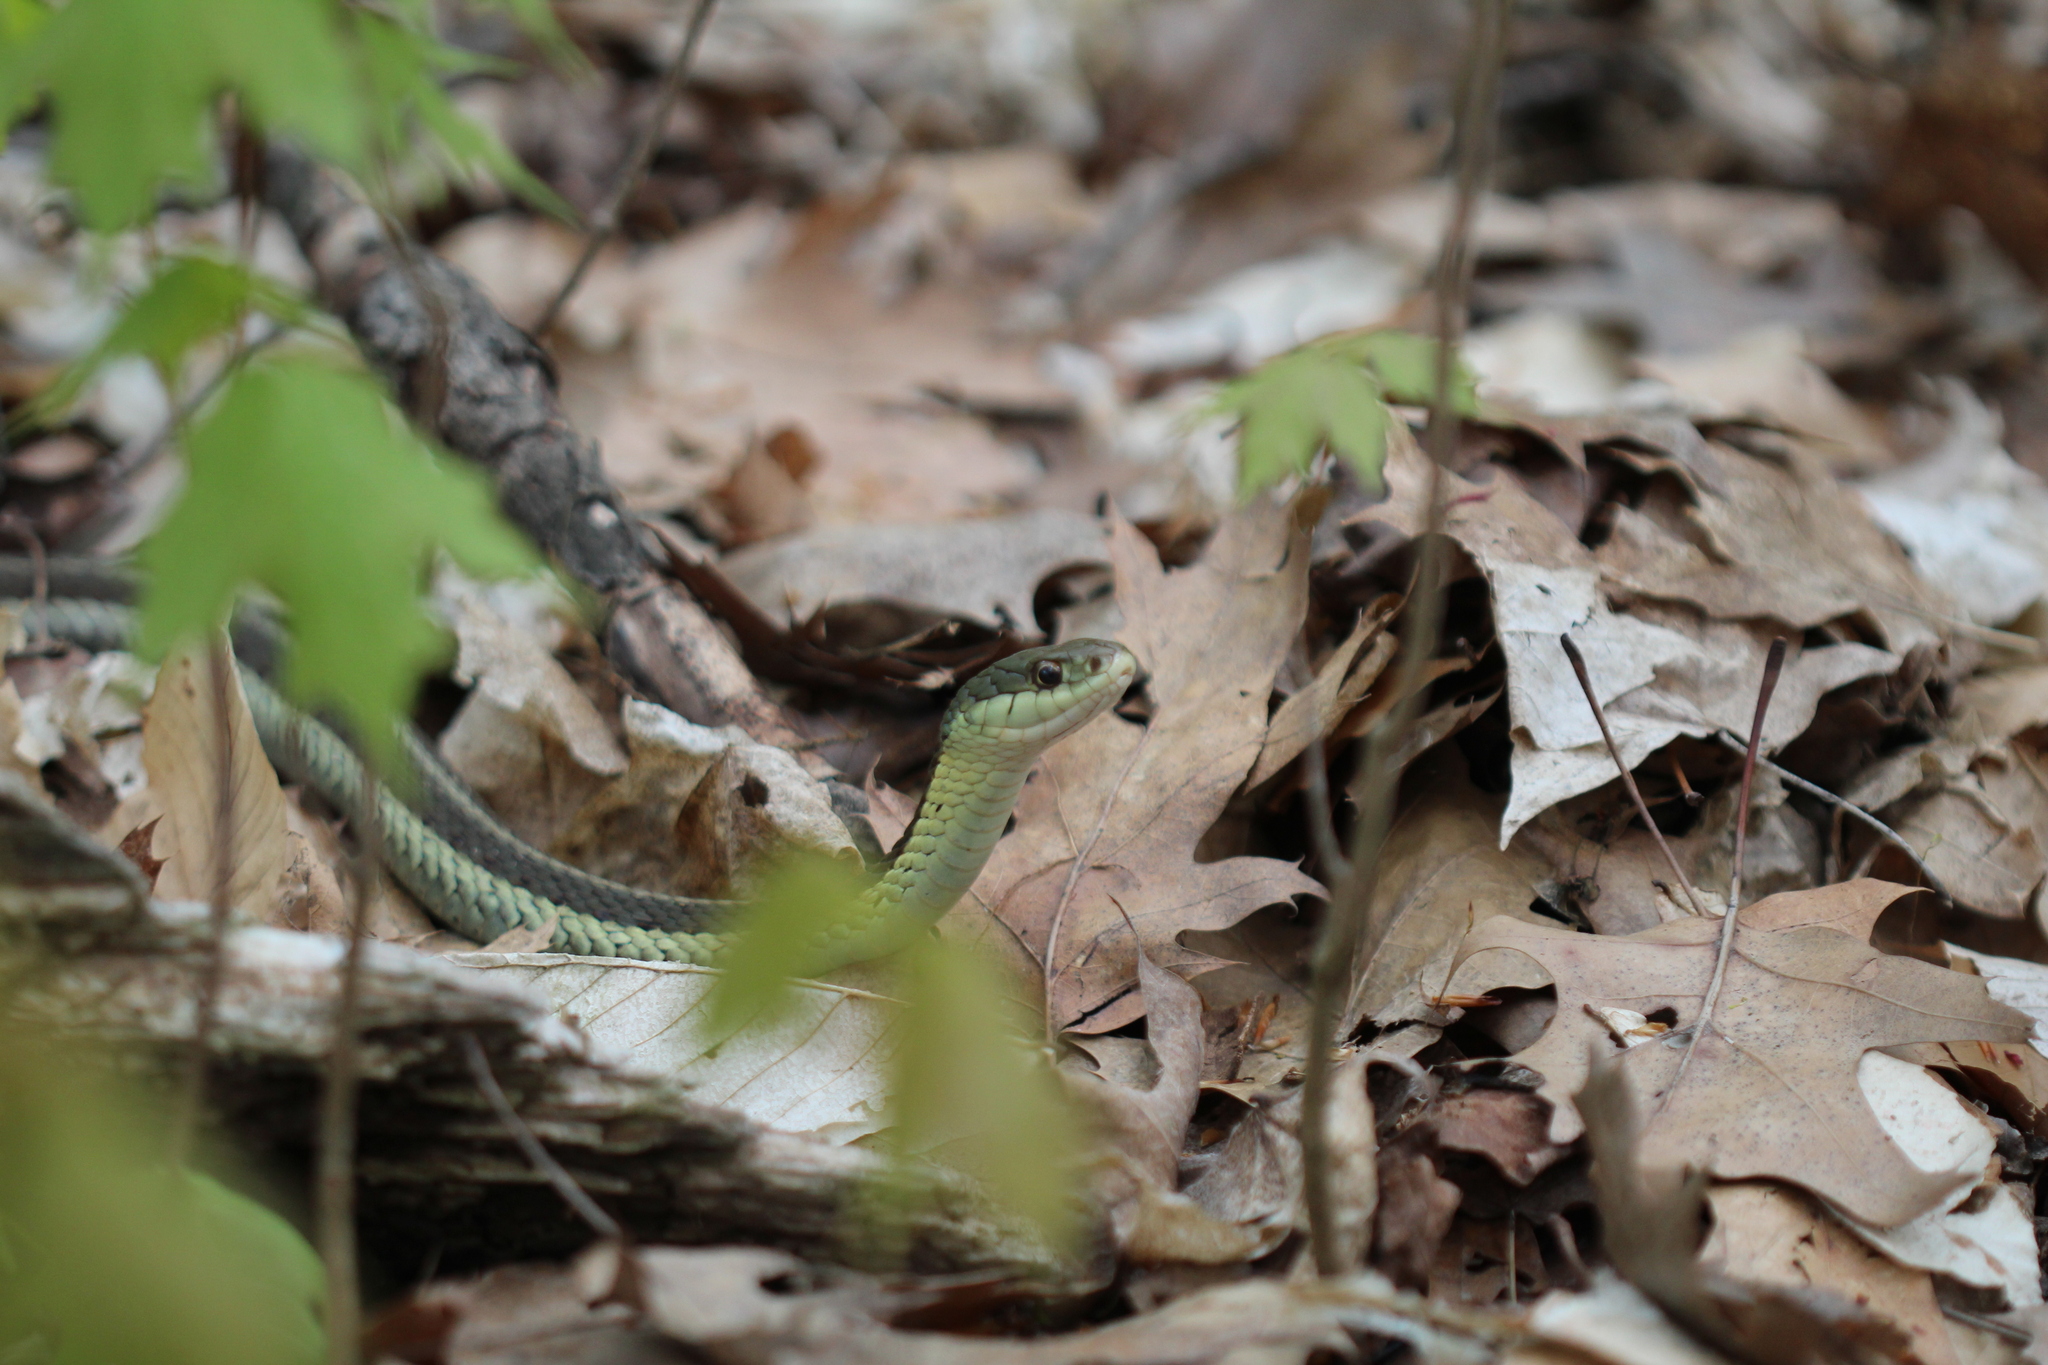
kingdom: Animalia
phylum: Chordata
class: Squamata
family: Colubridae
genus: Thamnophis
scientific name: Thamnophis sirtalis
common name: Common garter snake
